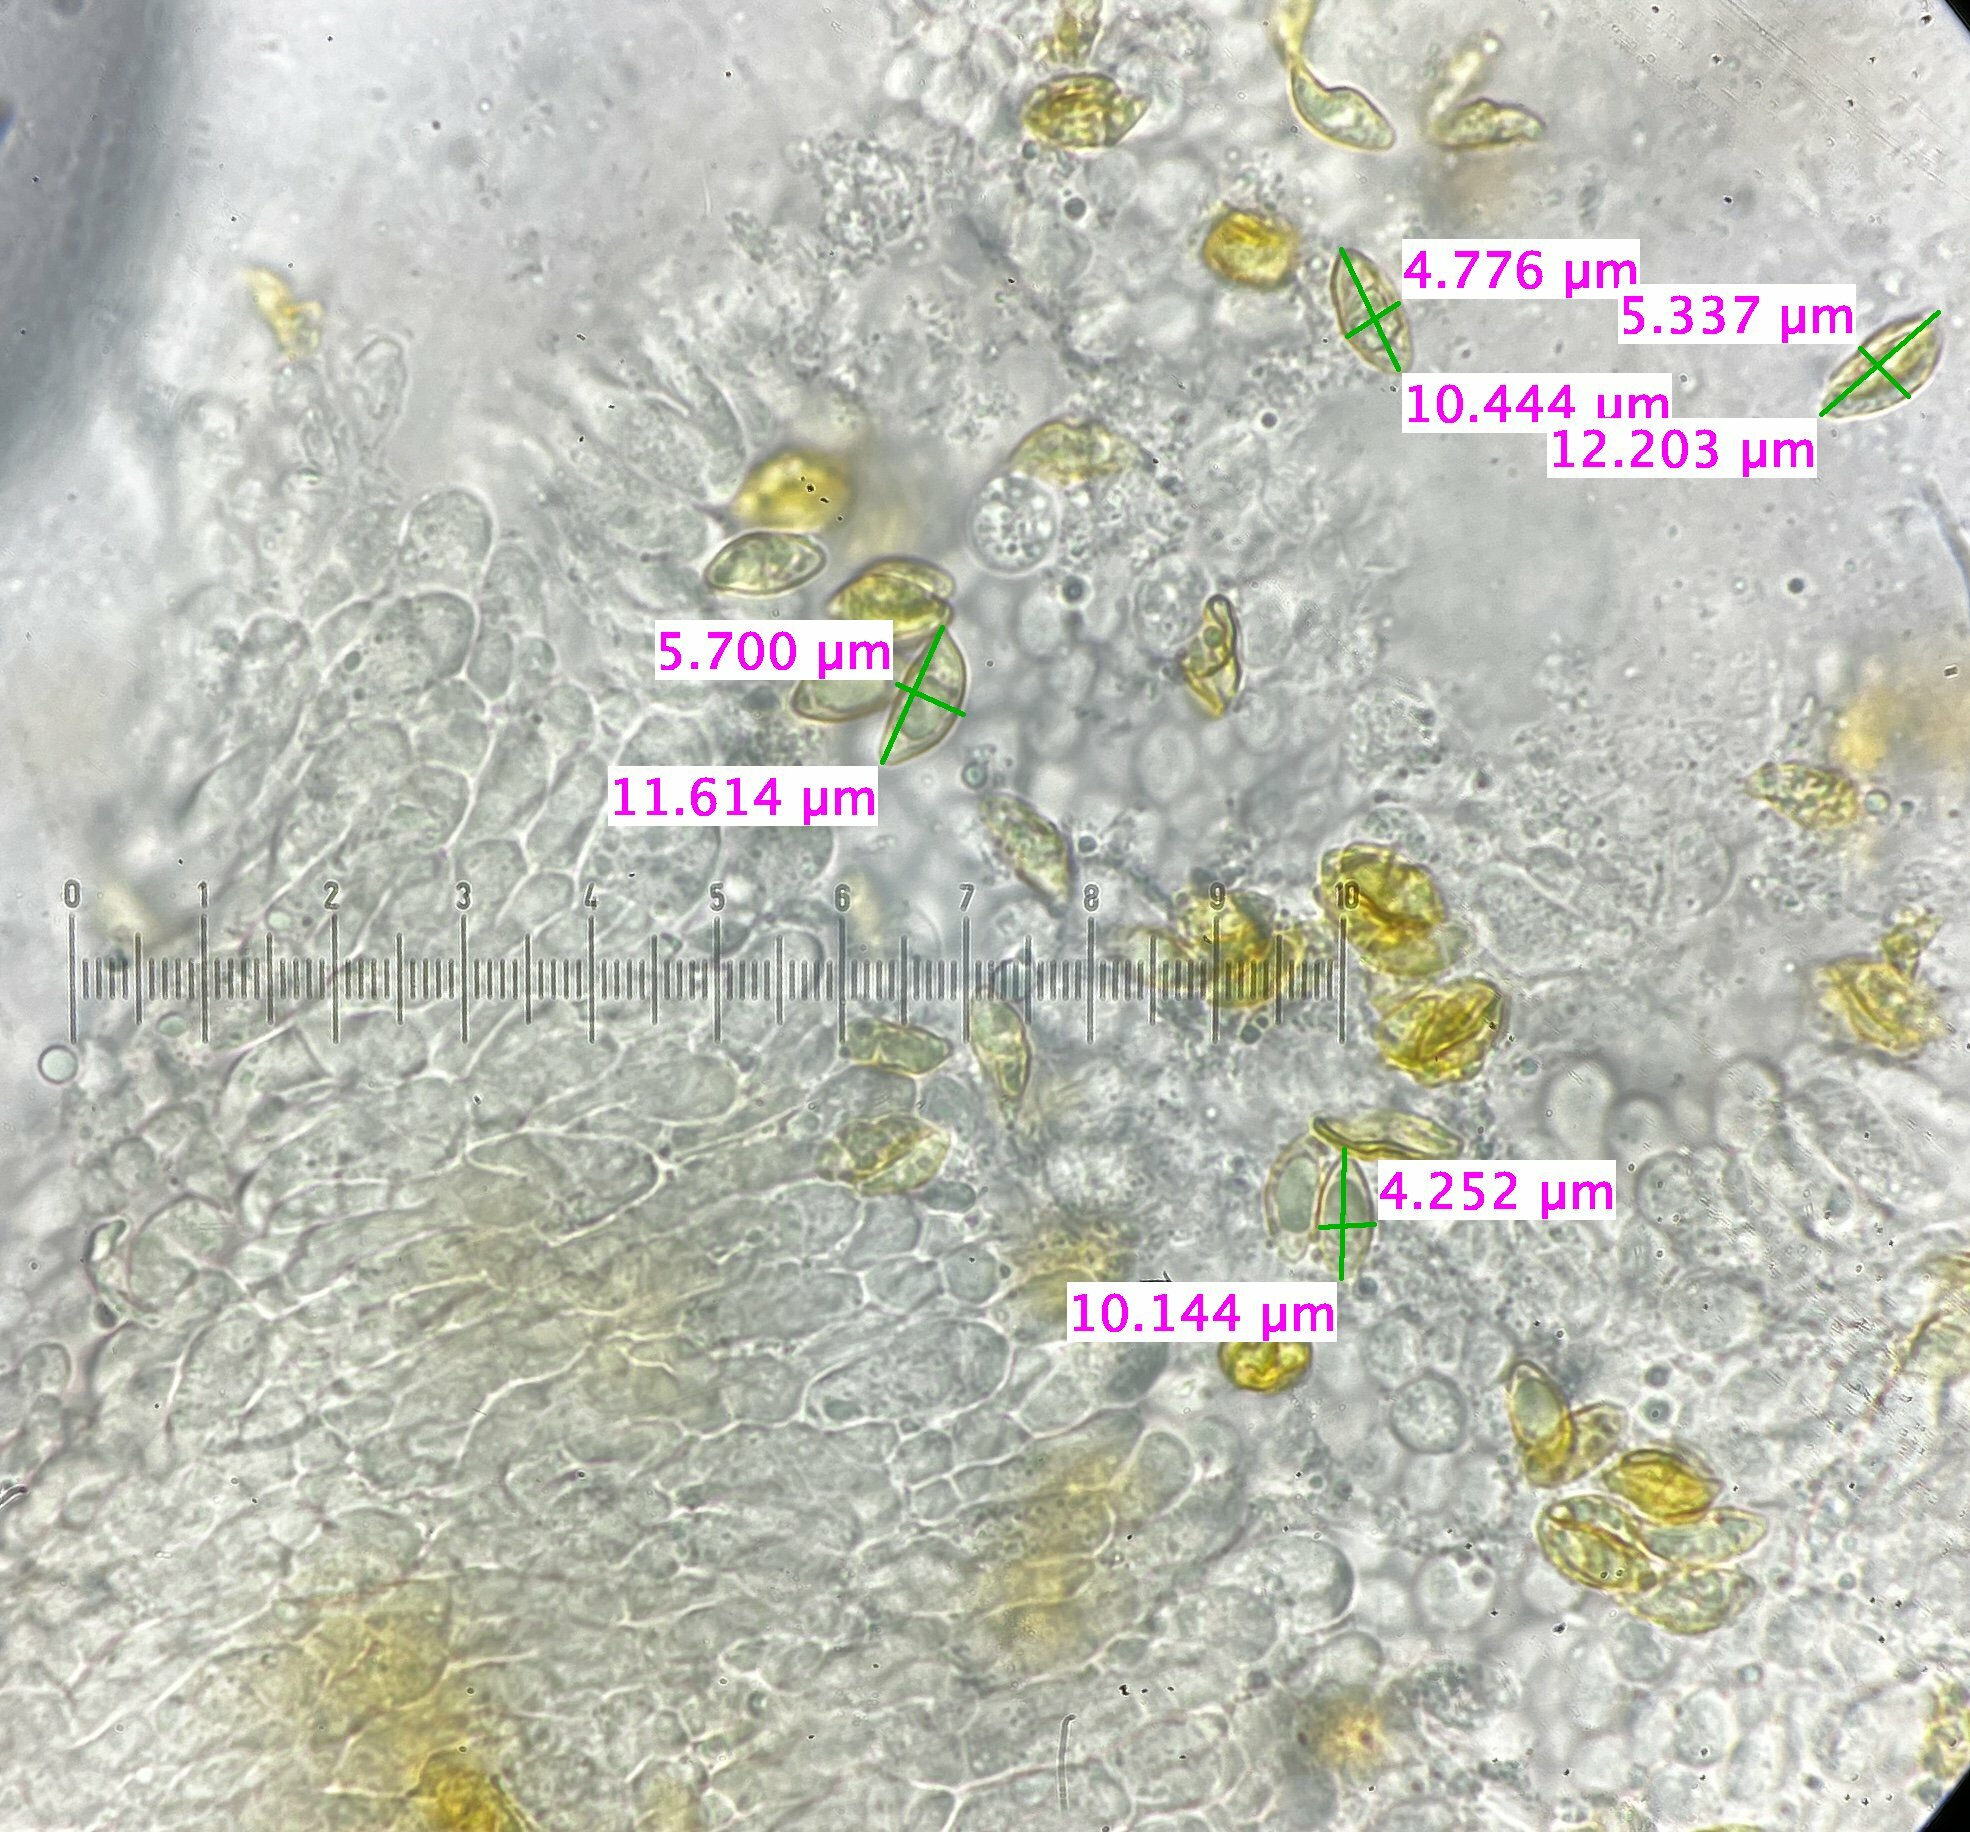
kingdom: Fungi
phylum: Basidiomycota
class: Agaricomycetes
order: Agaricales
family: Tricholomataceae
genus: Phaeolepiota
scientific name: Phaeolepiota aurea
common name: Golden bootleg
